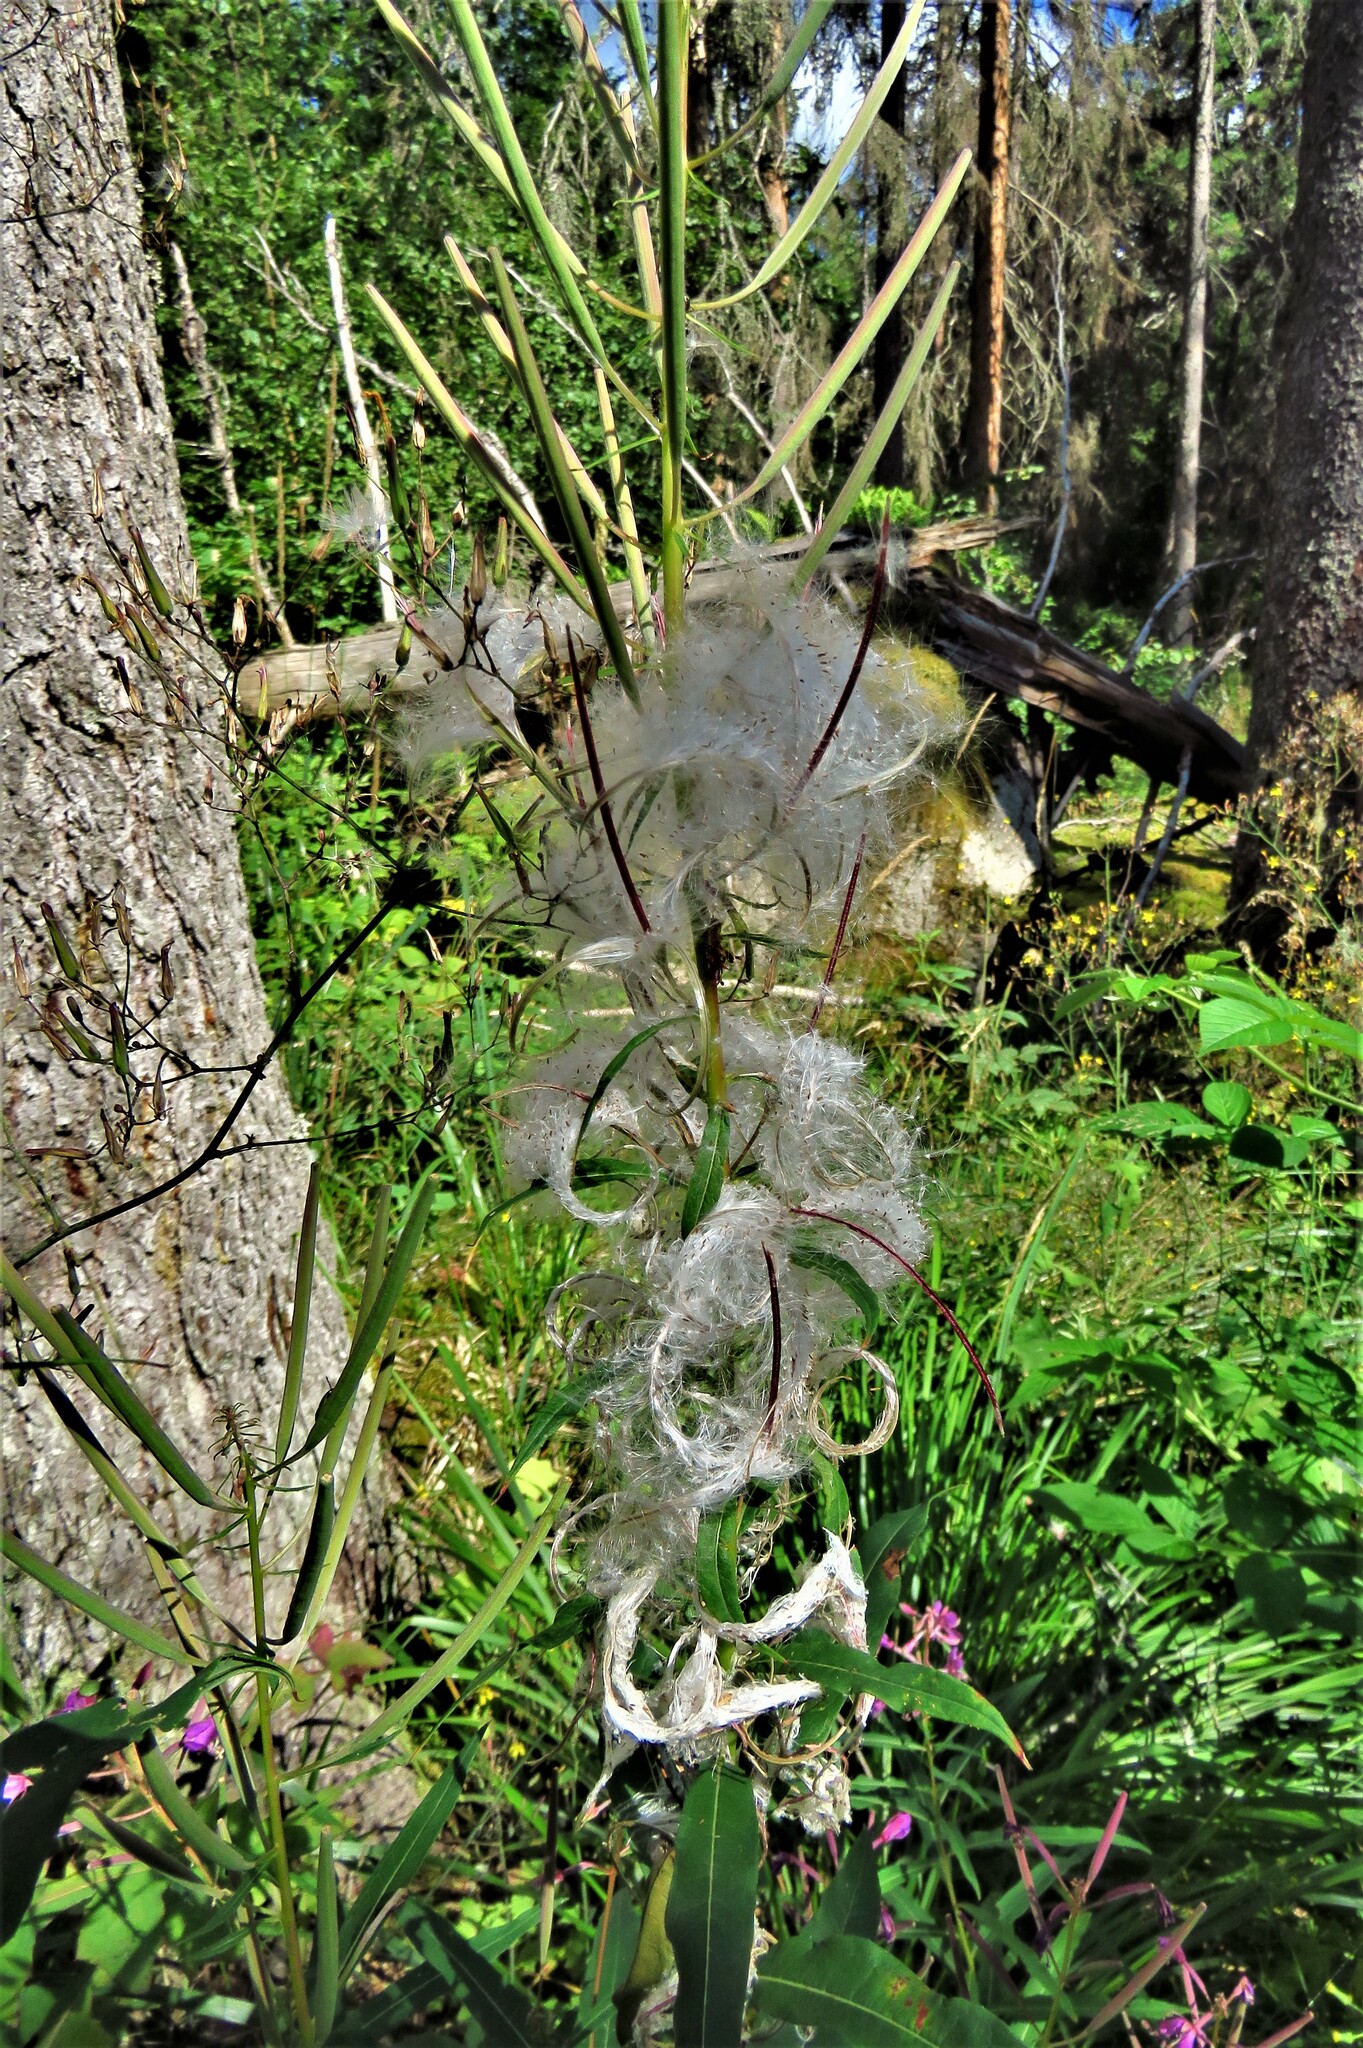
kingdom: Plantae
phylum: Tracheophyta
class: Magnoliopsida
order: Myrtales
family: Onagraceae
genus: Chamaenerion
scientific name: Chamaenerion angustifolium
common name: Fireweed
